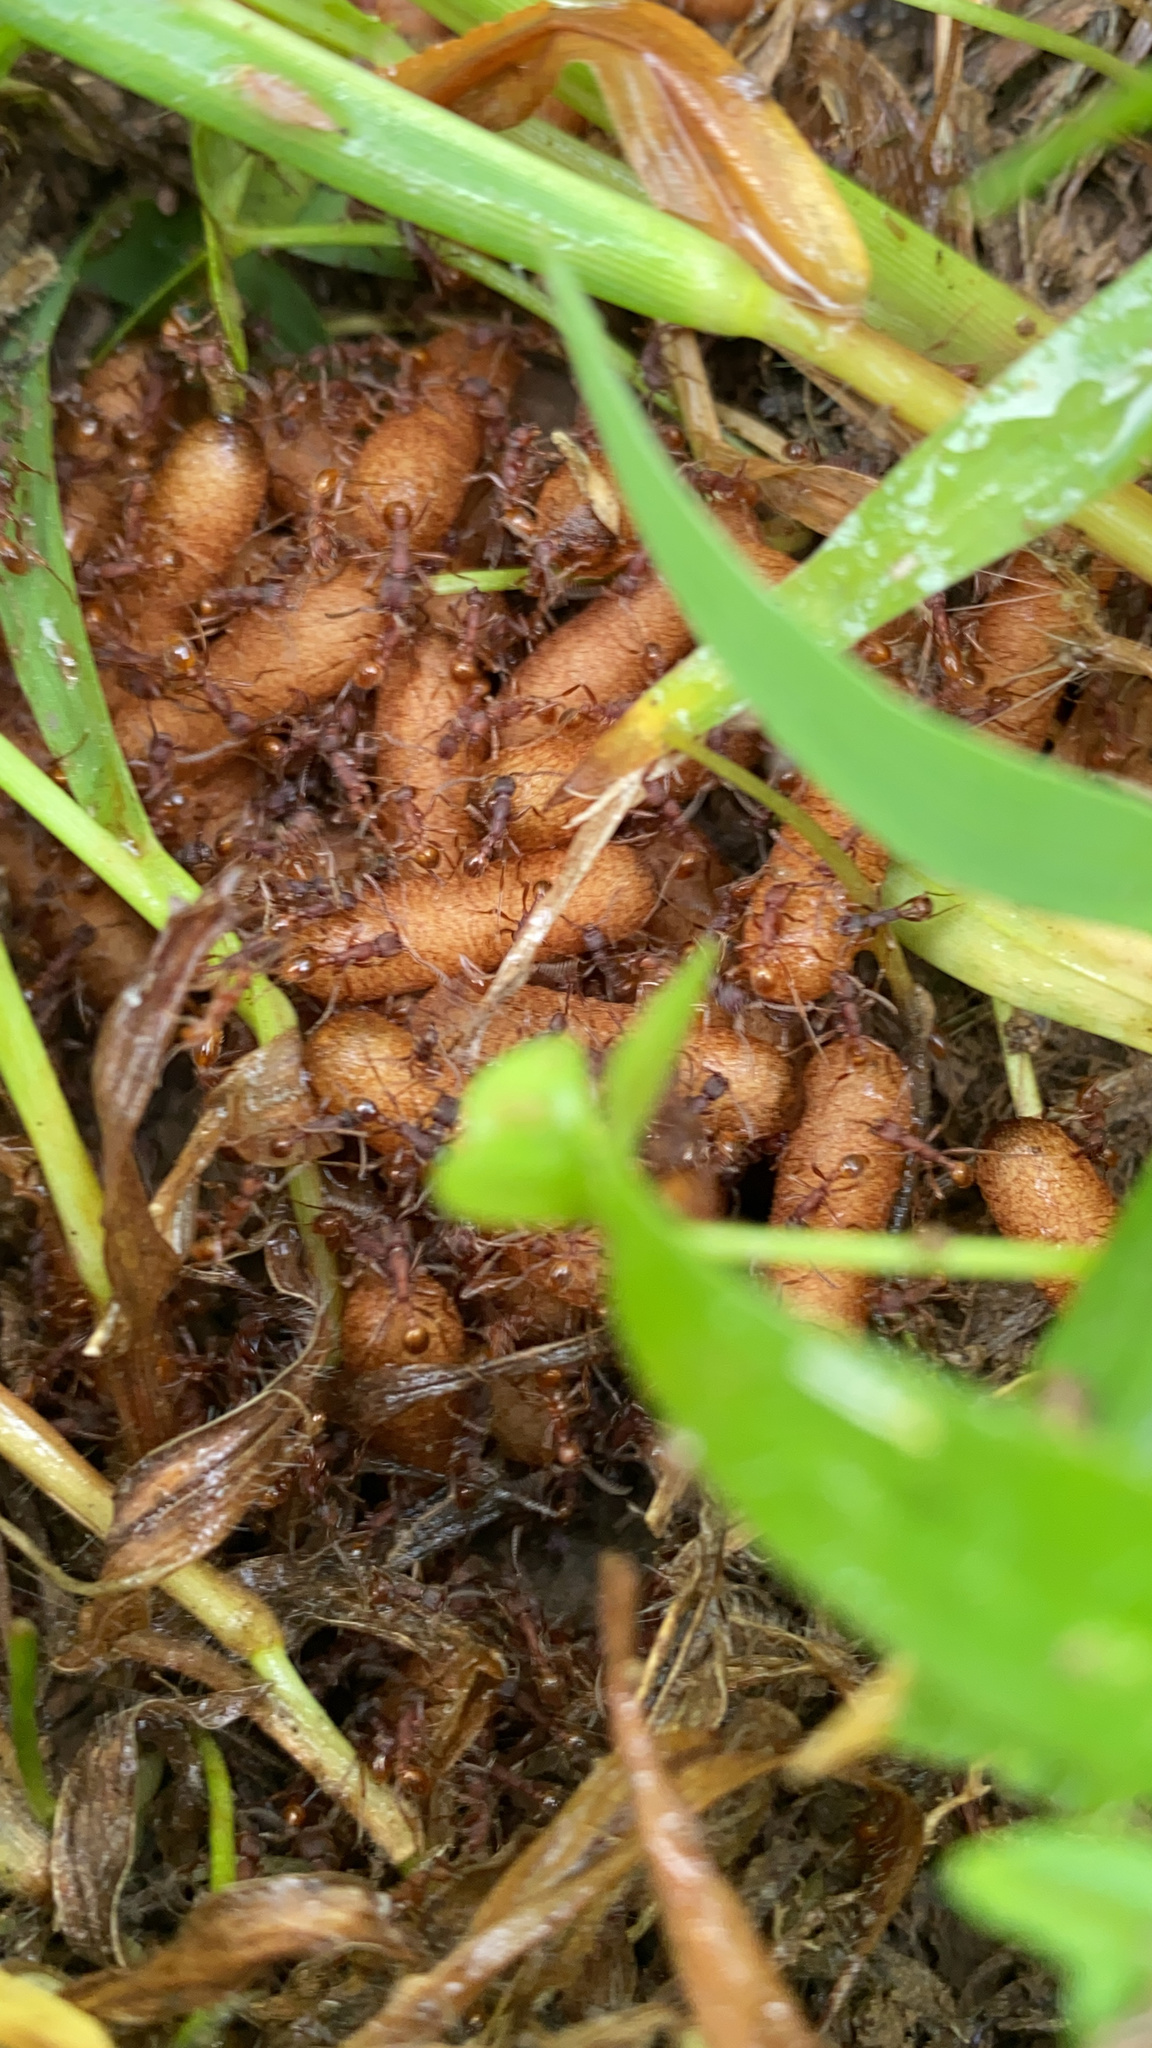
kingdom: Animalia
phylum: Arthropoda
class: Insecta
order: Hymenoptera
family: Formicidae
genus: Neivamyrmex
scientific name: Neivamyrmex nigrescens
